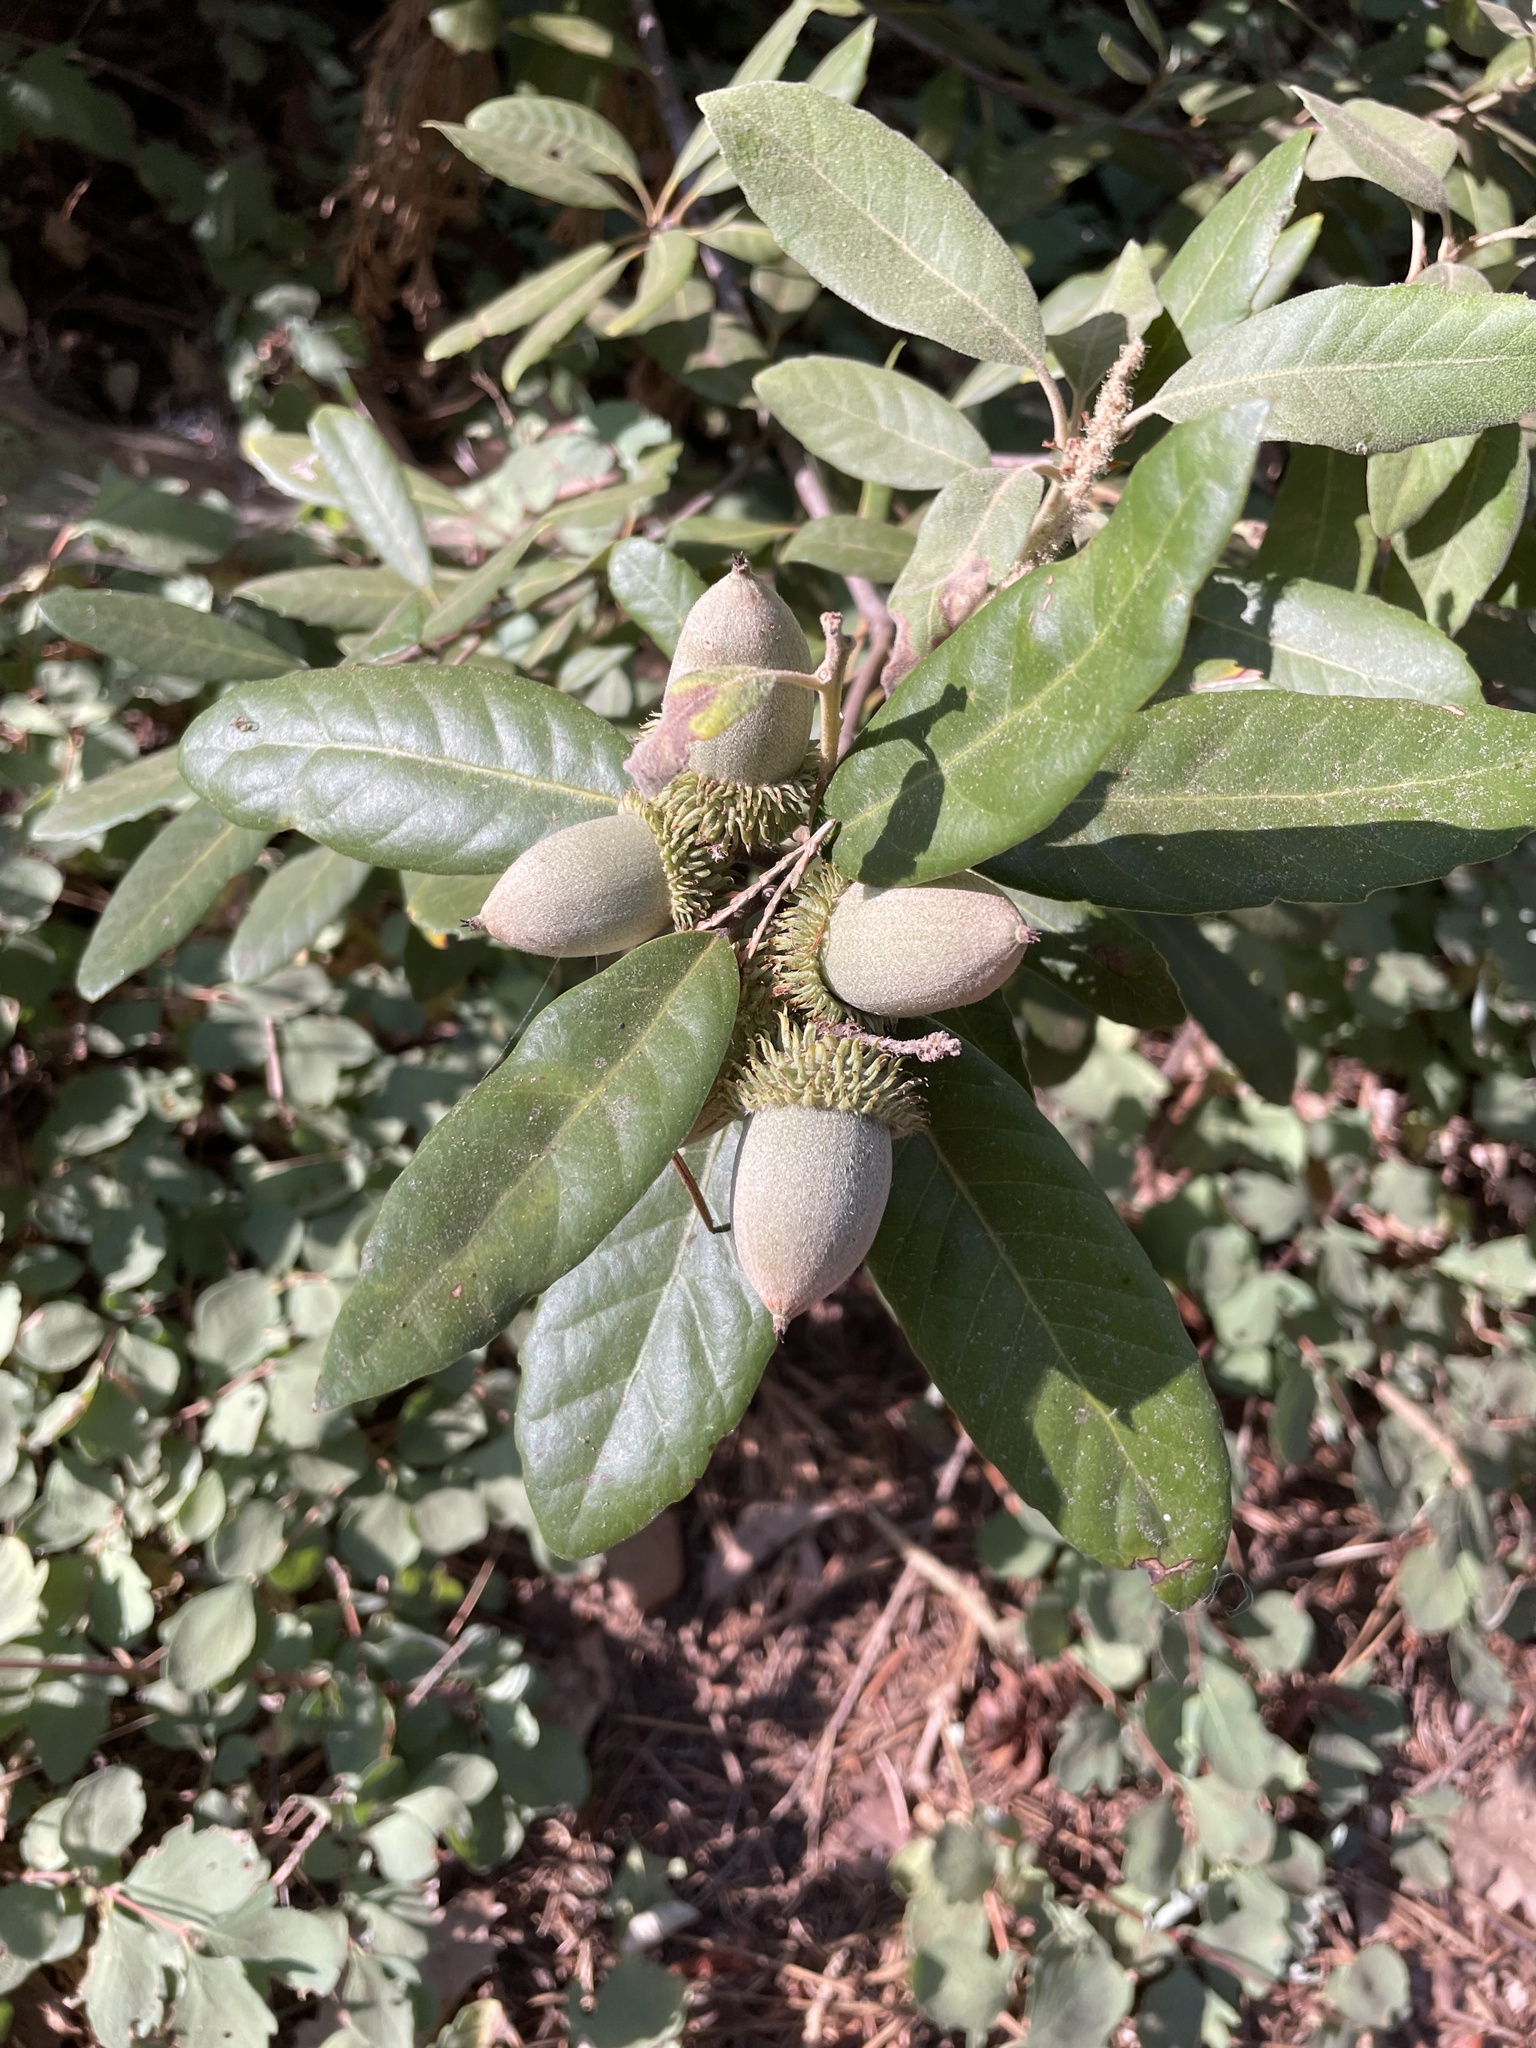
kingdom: Plantae
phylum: Tracheophyta
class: Magnoliopsida
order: Fagales
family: Fagaceae
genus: Notholithocarpus
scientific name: Notholithocarpus densiflorus
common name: Tan bark oak
